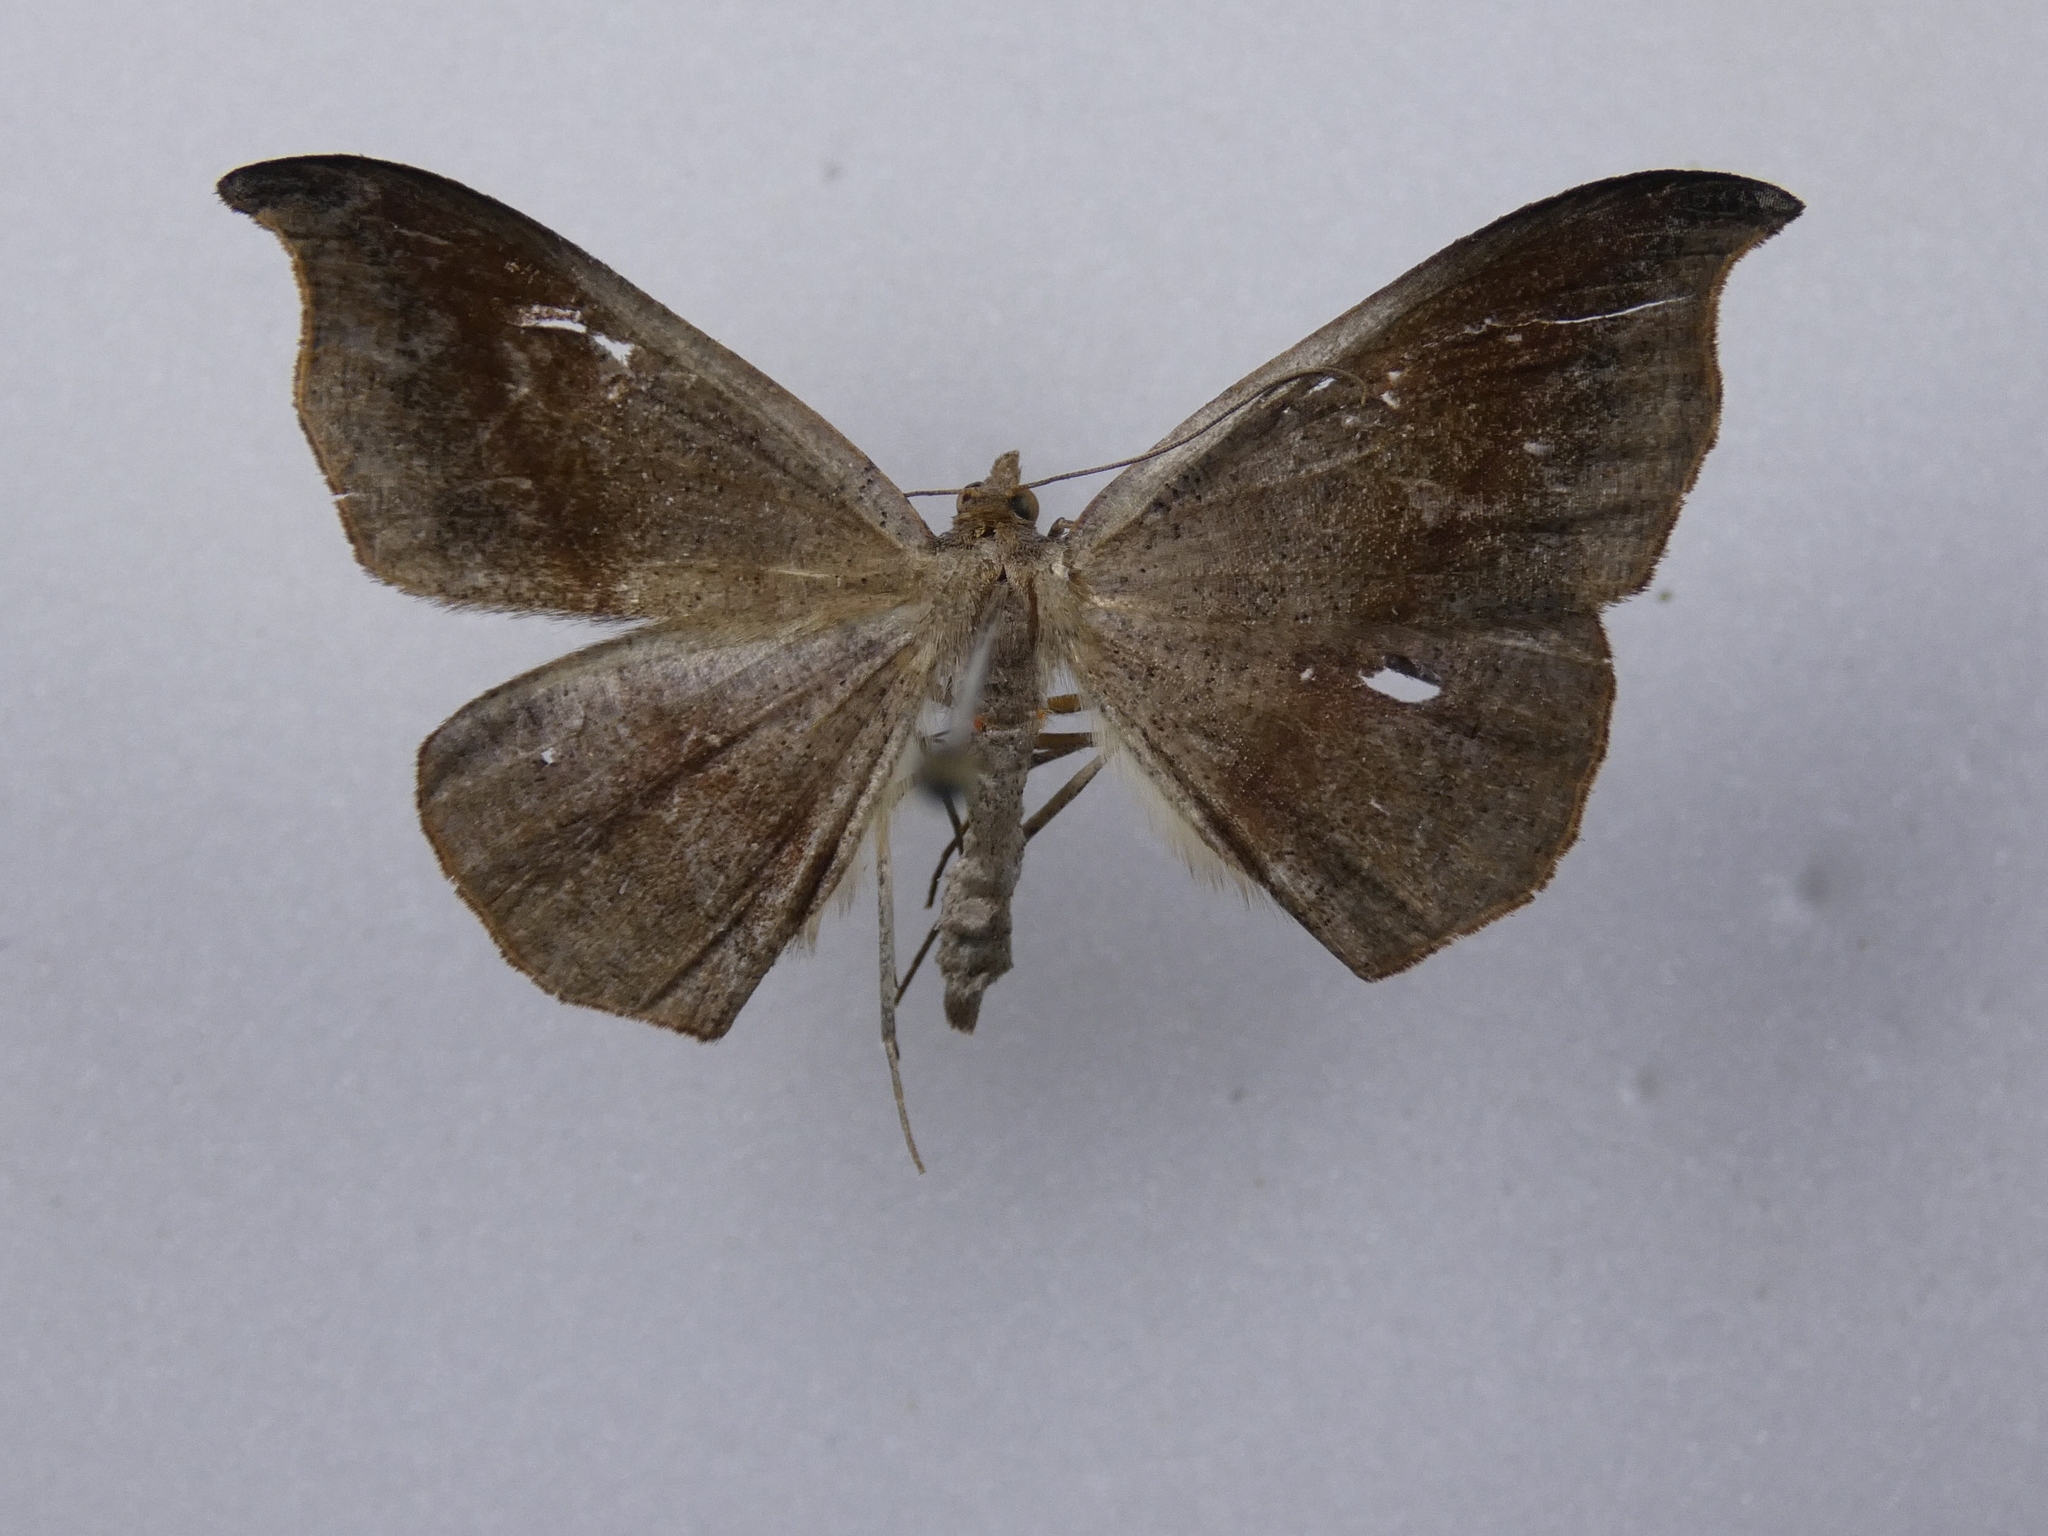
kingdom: Animalia
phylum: Arthropoda
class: Insecta
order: Lepidoptera
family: Geometridae
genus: Sarisa
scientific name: Sarisa muriferata
